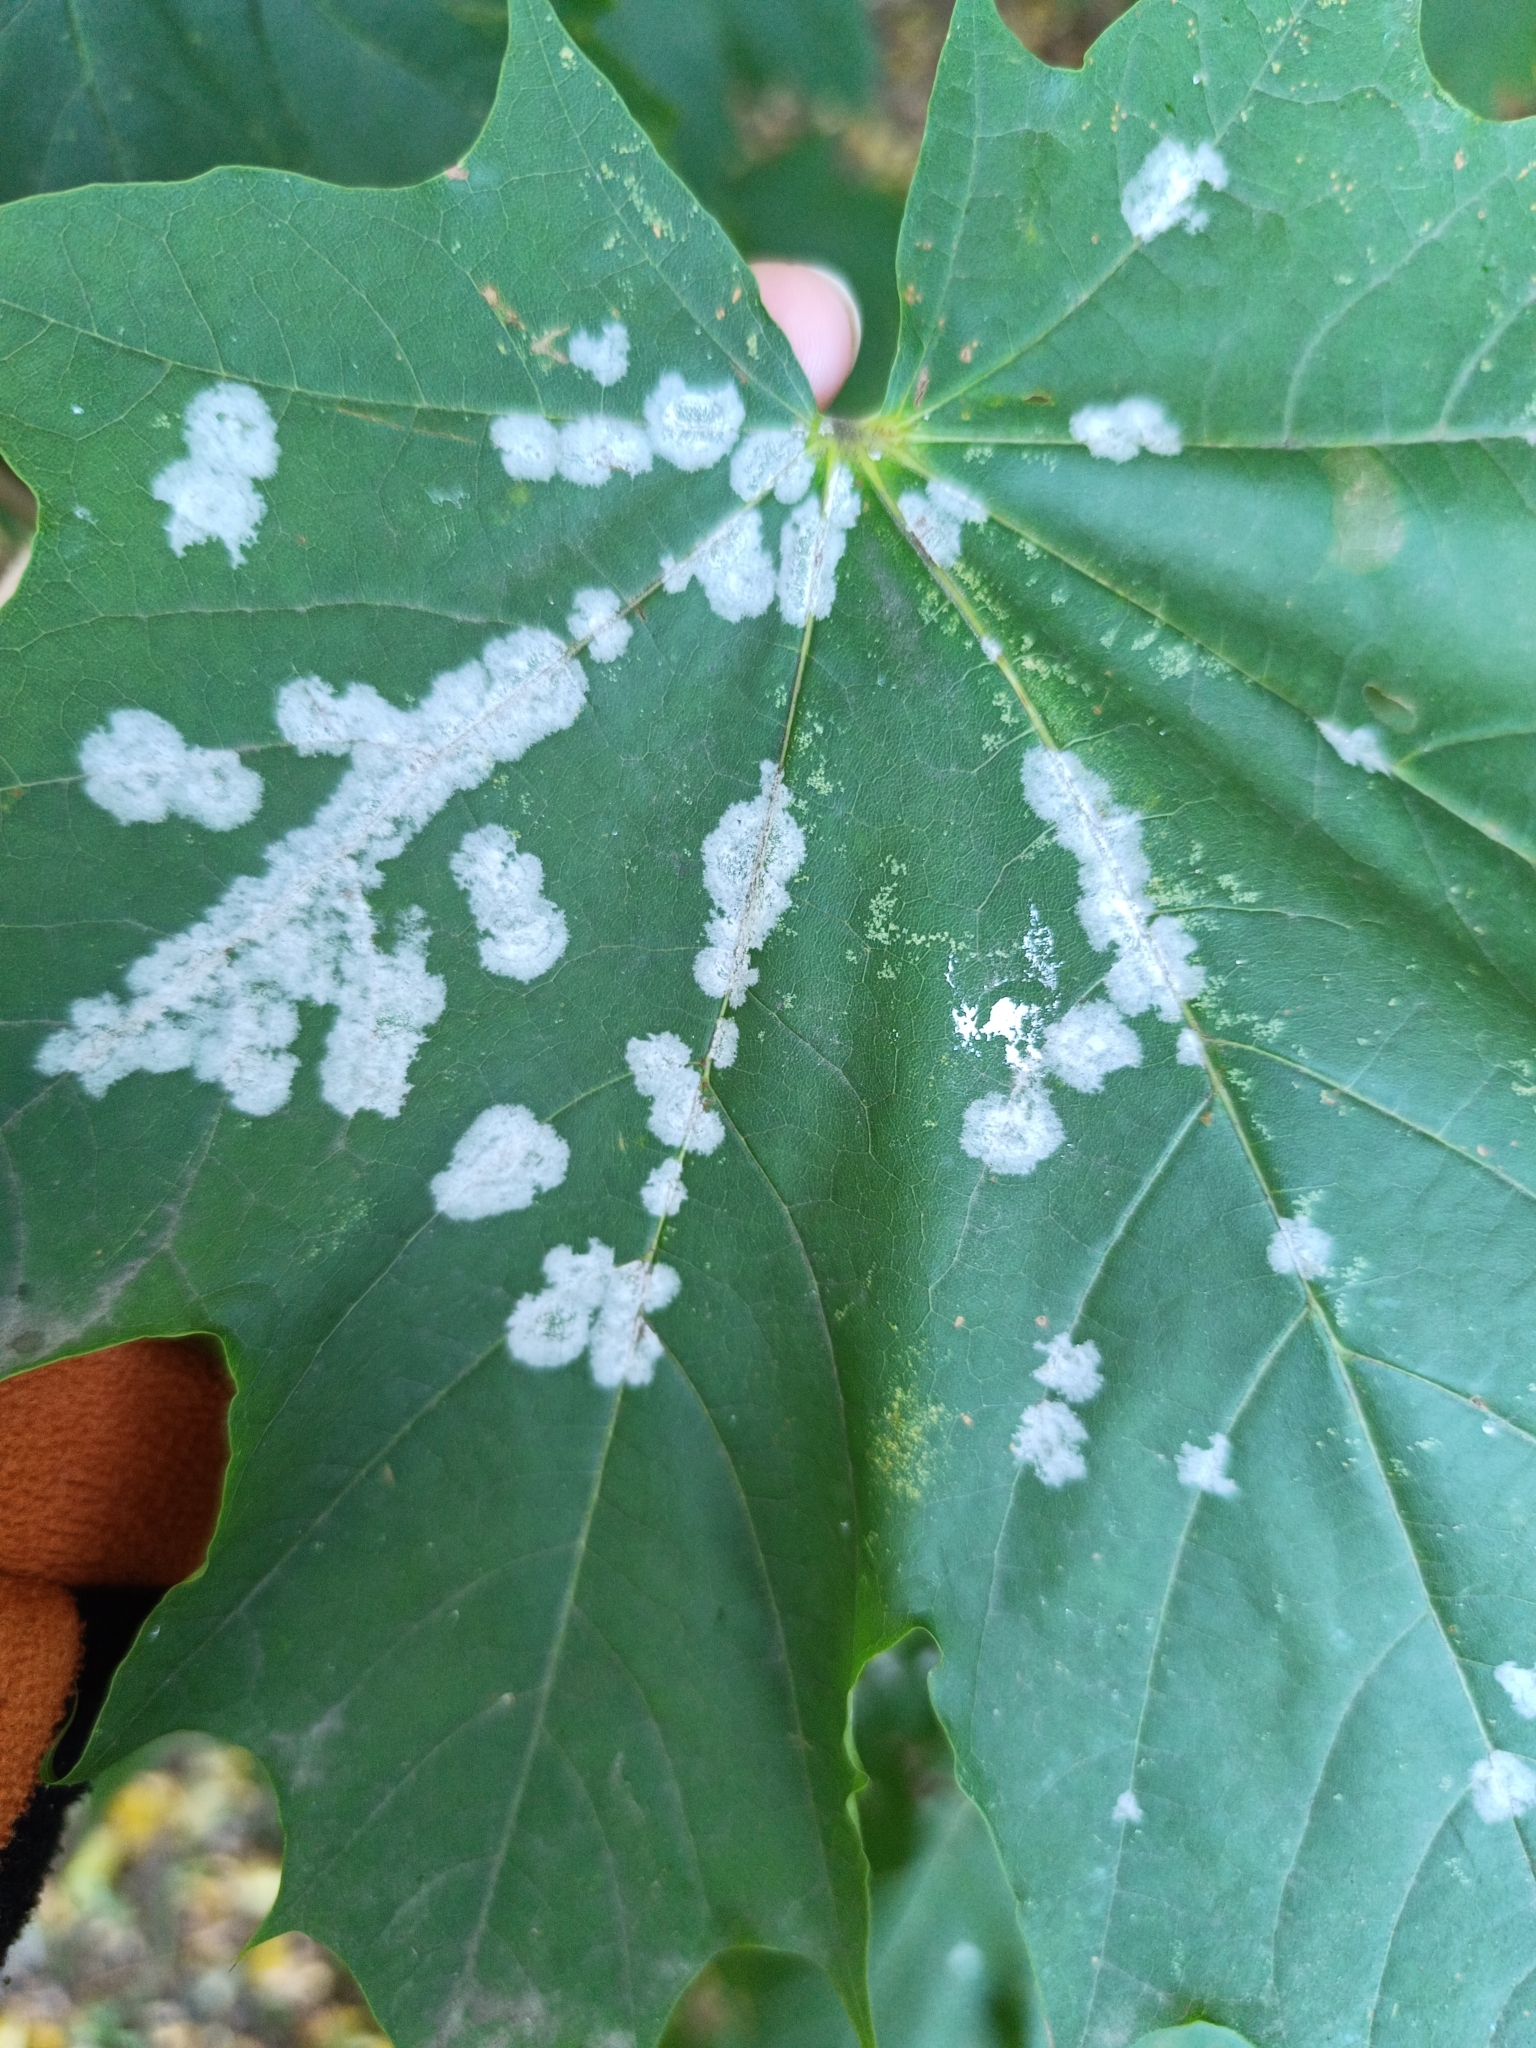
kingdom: Fungi
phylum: Ascomycota
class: Leotiomycetes
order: Helotiales
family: Erysiphaceae
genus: Sawadaea
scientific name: Sawadaea tulasnei
